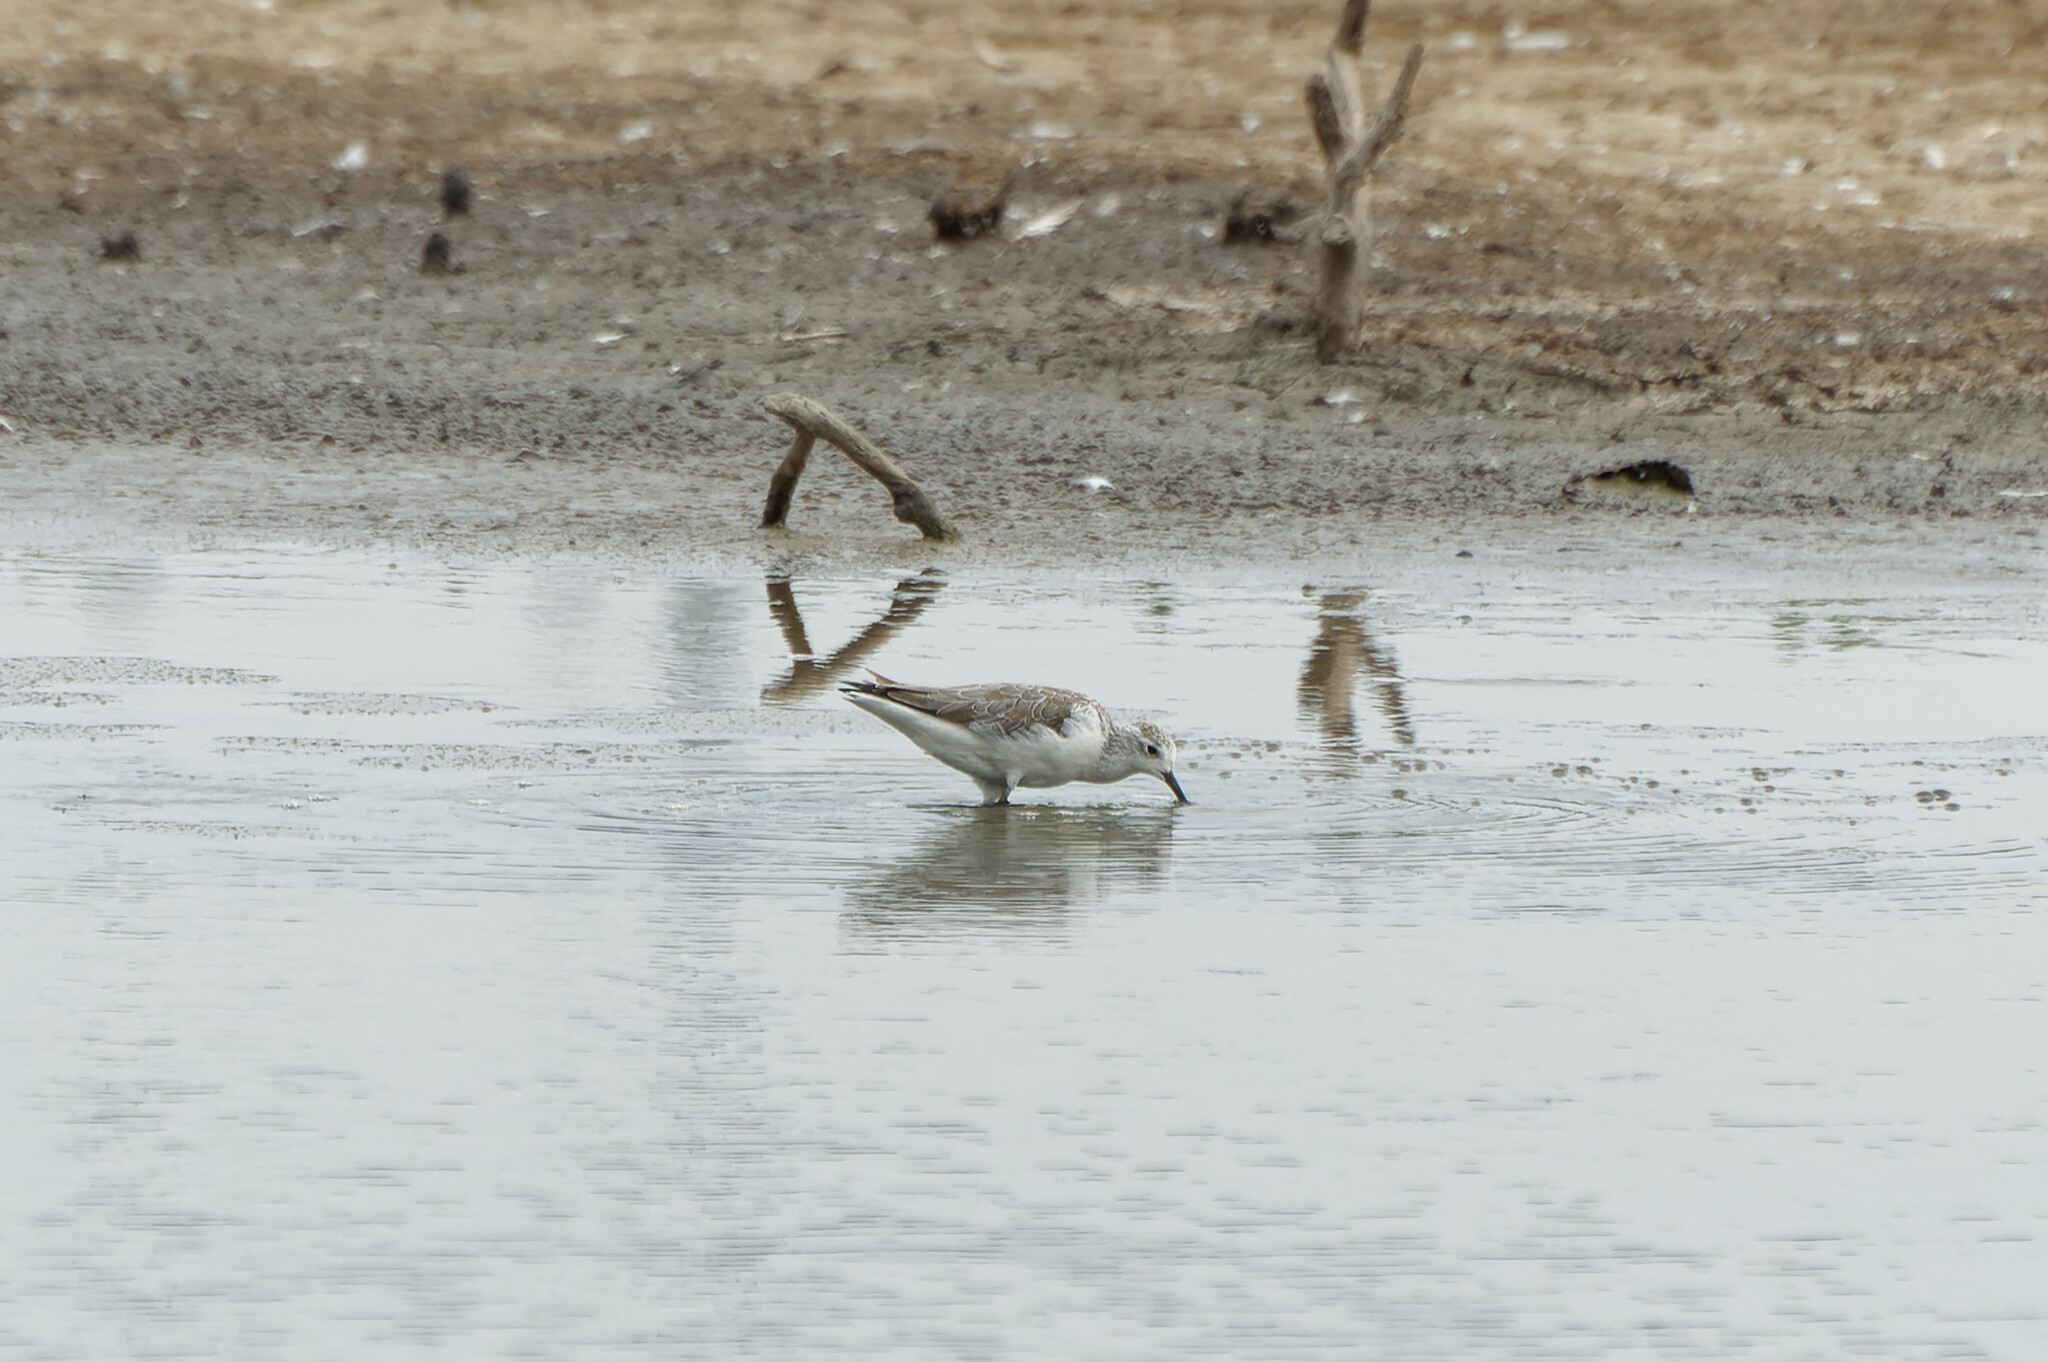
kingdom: Animalia
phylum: Chordata
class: Aves
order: Charadriiformes
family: Scolopacidae
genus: Tringa
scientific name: Tringa stagnatilis
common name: Marsh sandpiper
